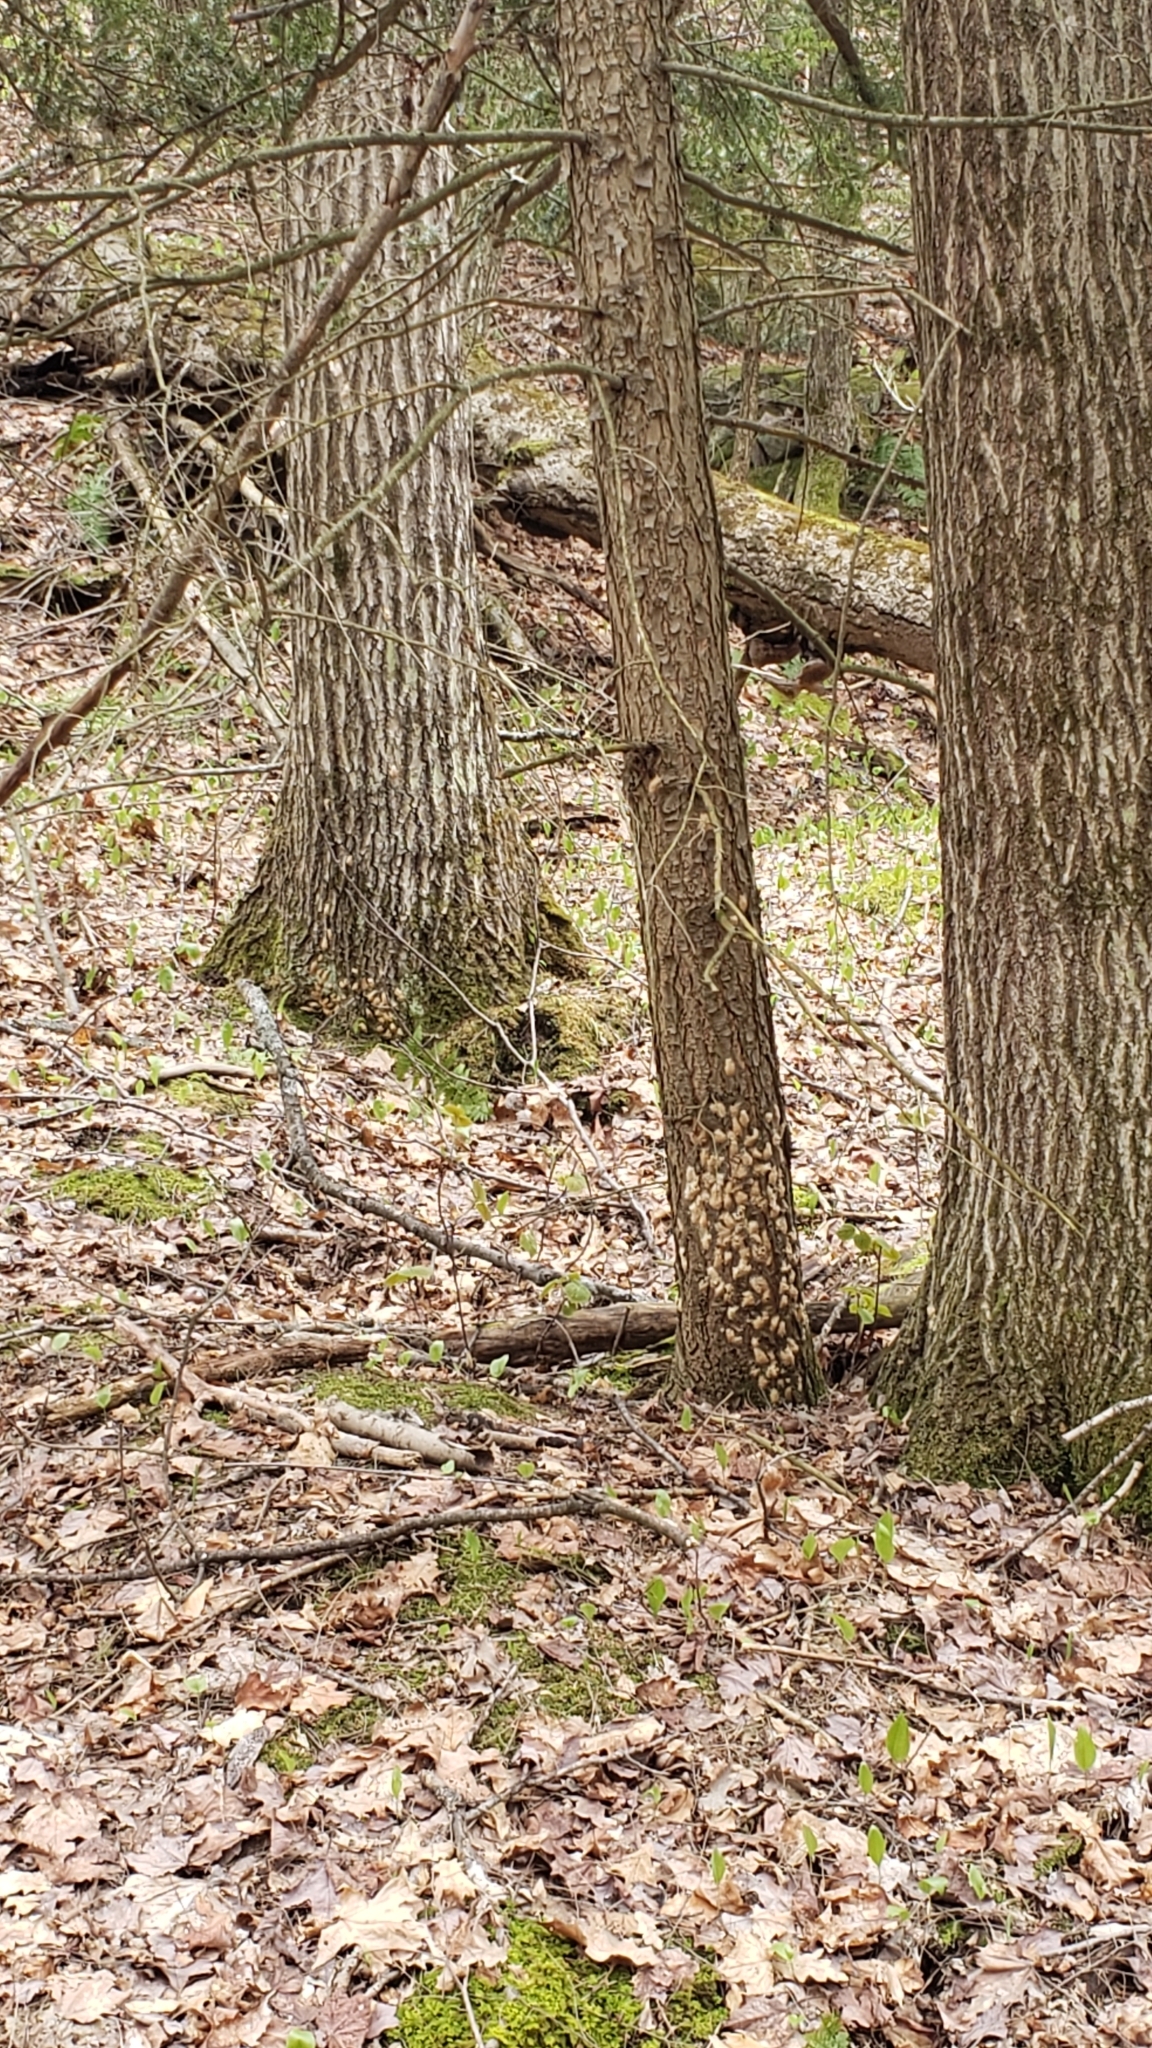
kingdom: Animalia
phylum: Arthropoda
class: Insecta
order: Lepidoptera
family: Erebidae
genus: Lymantria
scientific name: Lymantria dispar
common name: Gypsy moth
